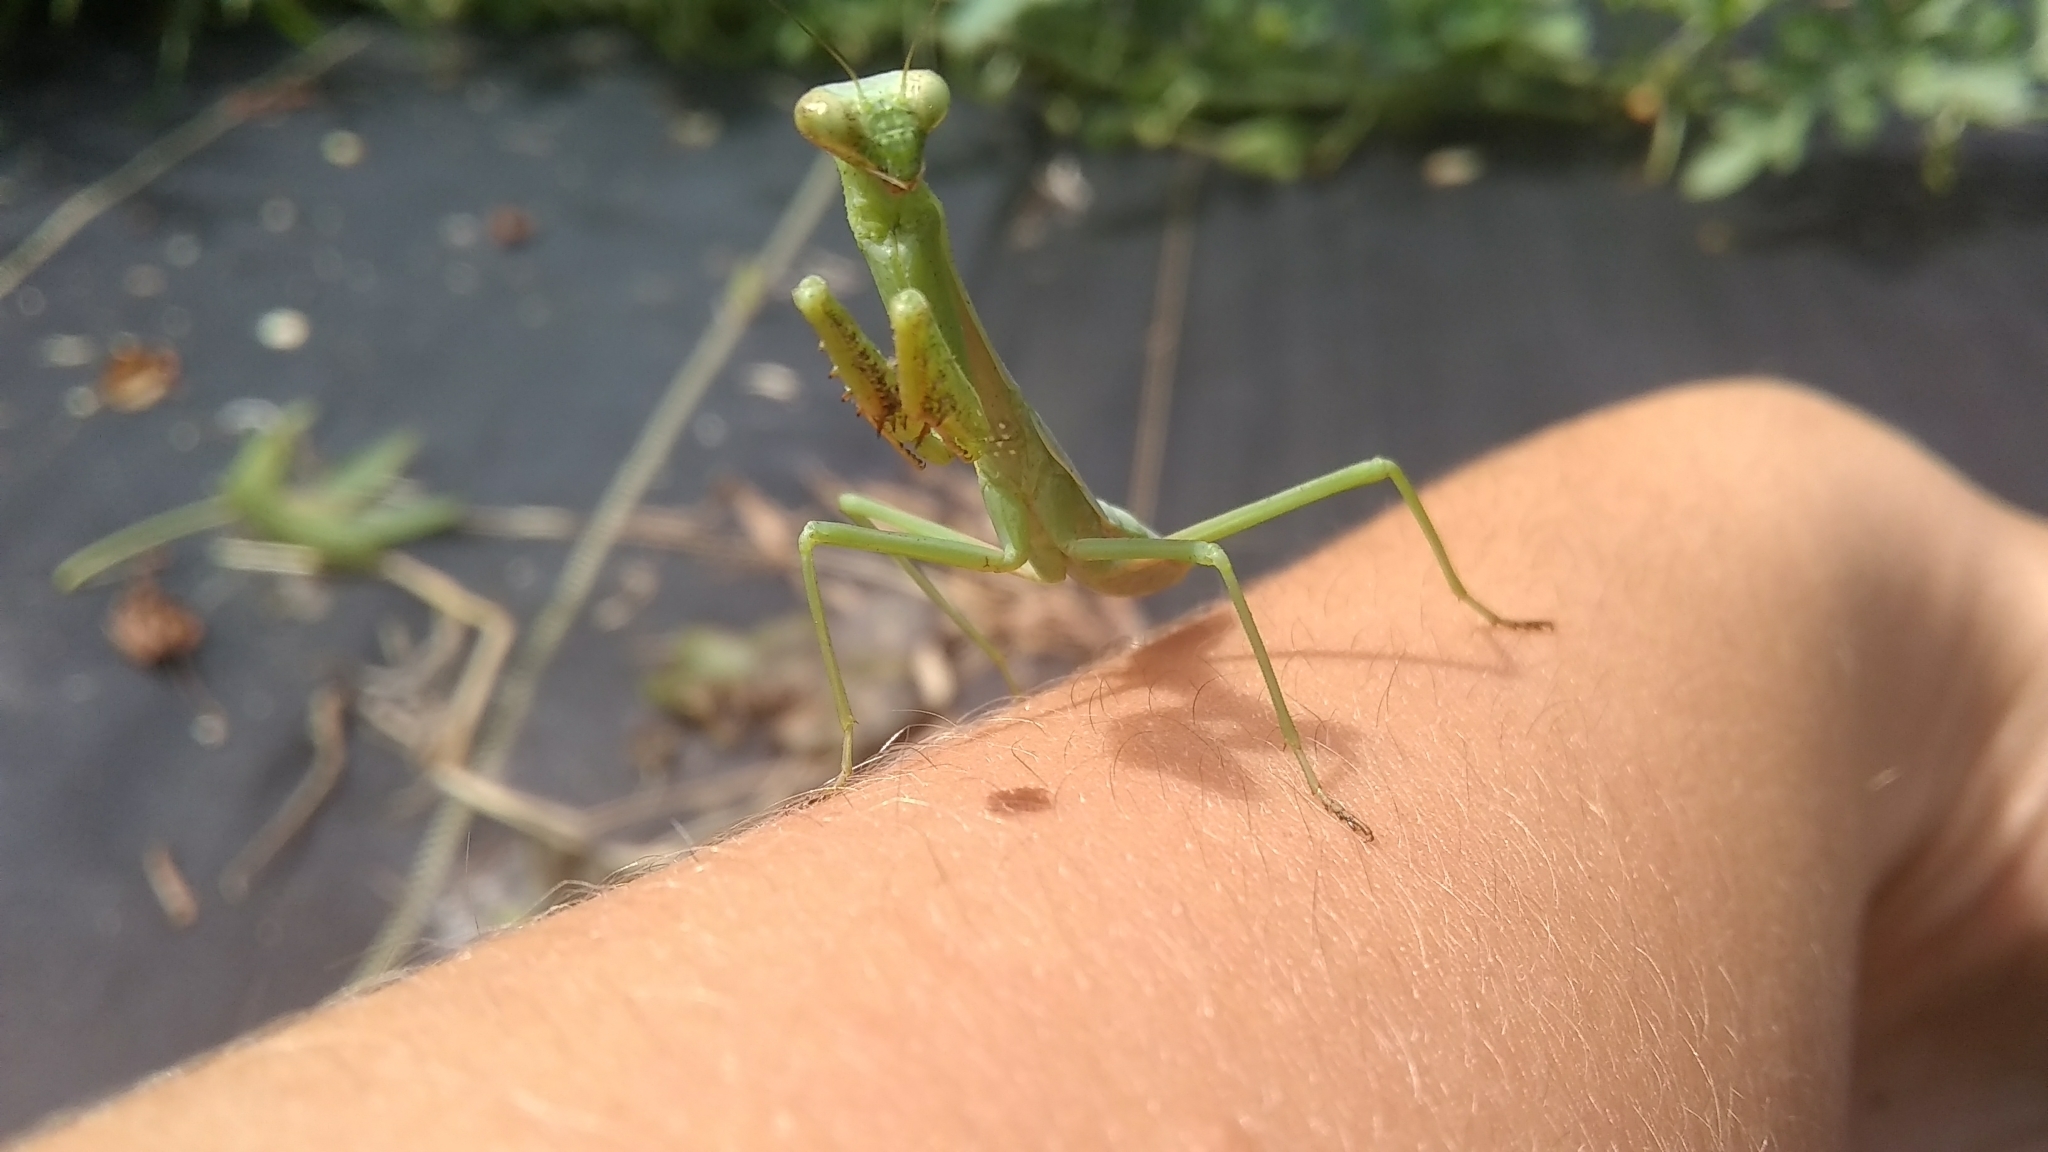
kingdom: Animalia
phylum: Arthropoda
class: Insecta
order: Mantodea
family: Mantidae
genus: Stagmomantis
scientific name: Stagmomantis carolina
